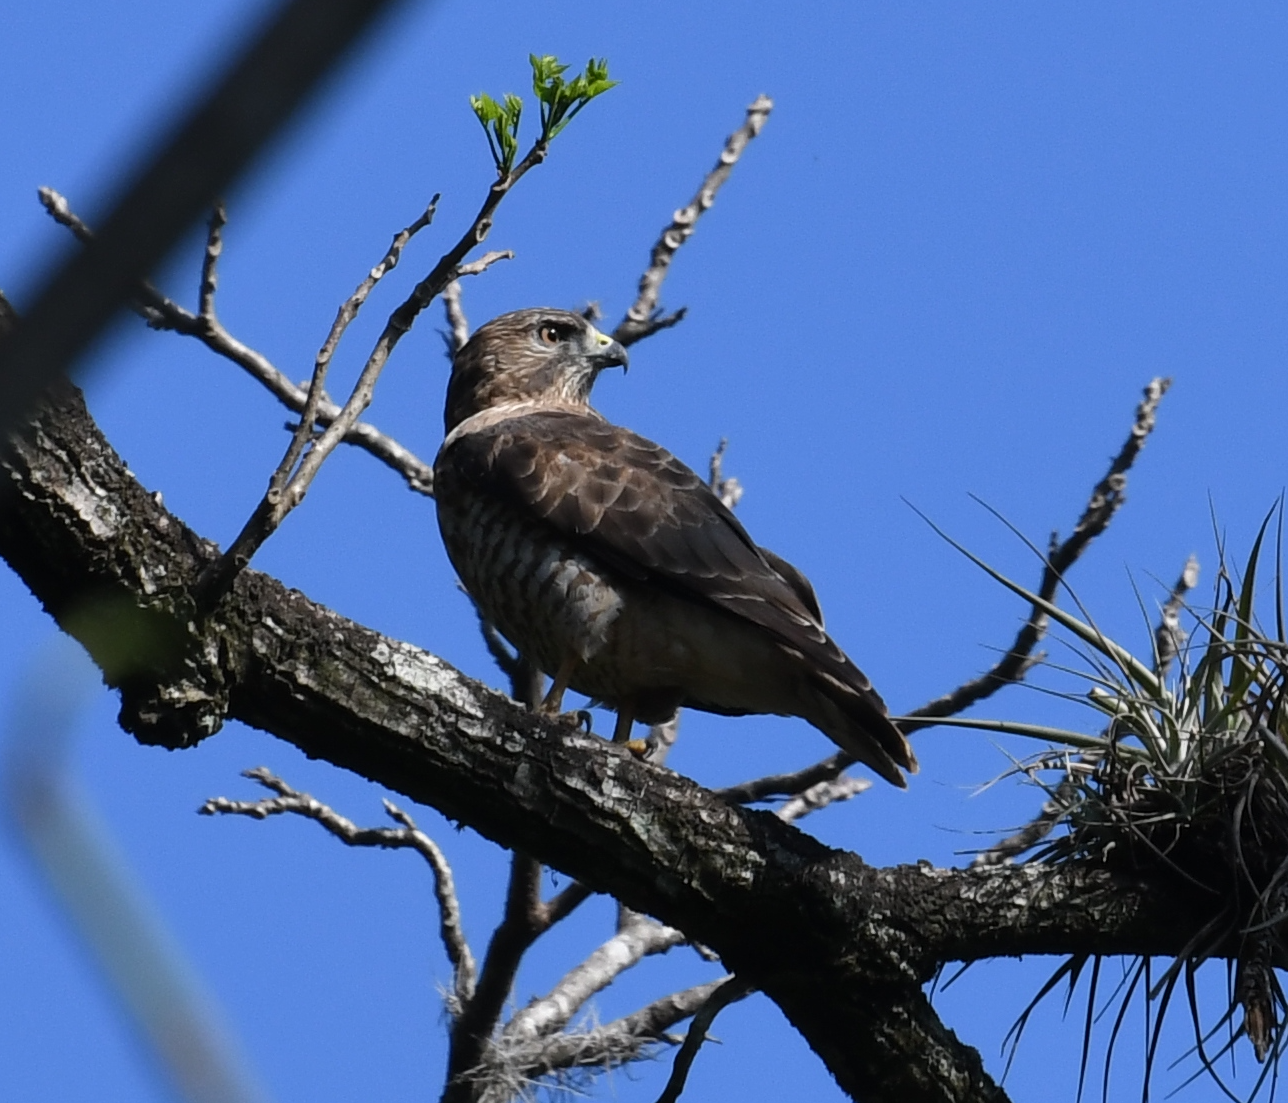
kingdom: Animalia
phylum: Chordata
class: Aves
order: Accipitriformes
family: Accipitridae
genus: Buteo
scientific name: Buteo platypterus
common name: Broad-winged hawk
